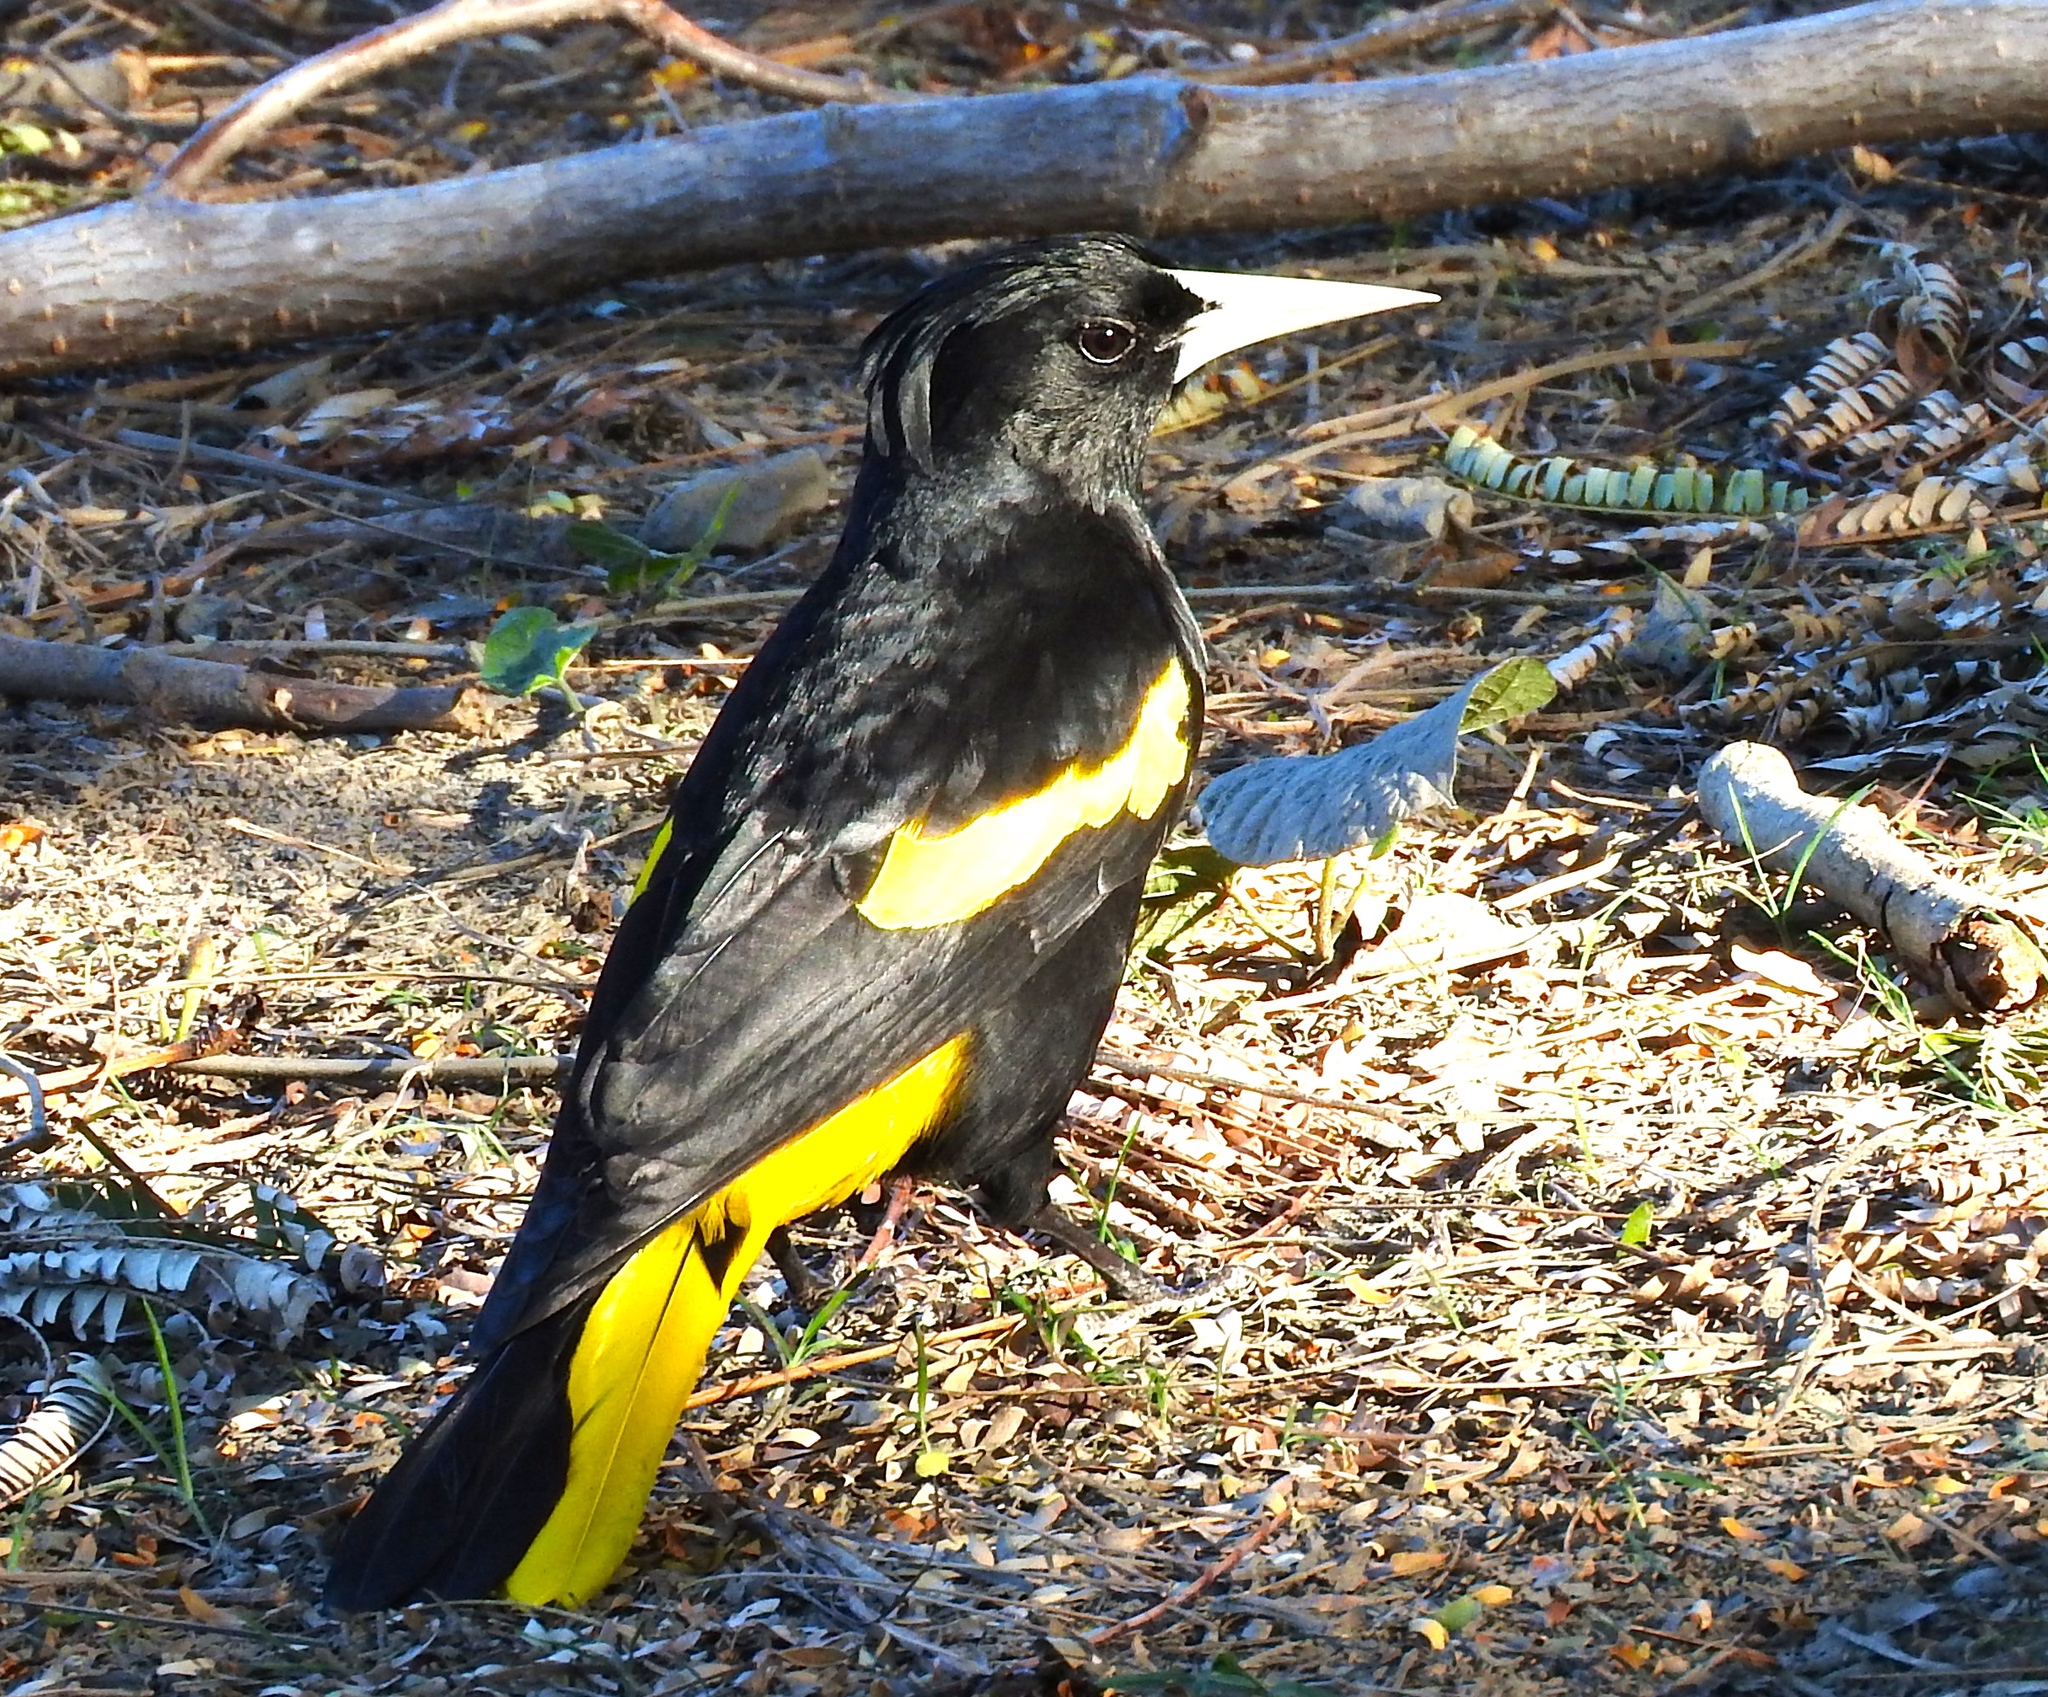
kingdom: Animalia
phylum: Chordata
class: Aves
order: Passeriformes
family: Icteridae
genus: Cacicus
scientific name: Cacicus melanicterus
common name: Yellow-winged cacique
